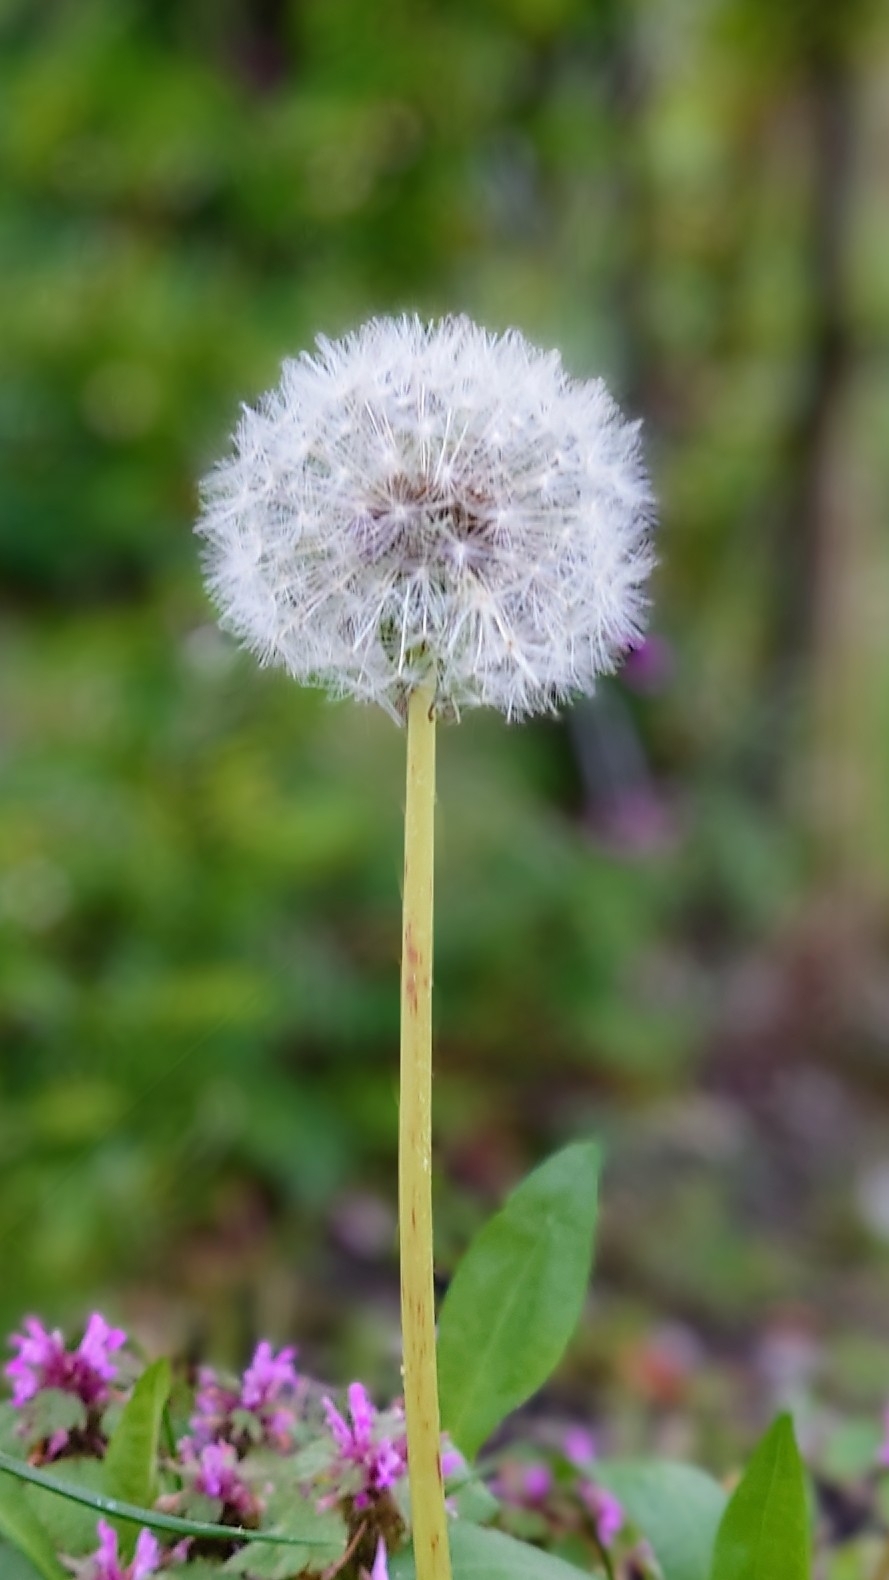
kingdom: Plantae
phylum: Tracheophyta
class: Magnoliopsida
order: Asterales
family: Asteraceae
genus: Taraxacum
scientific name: Taraxacum officinale
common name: Common dandelion
